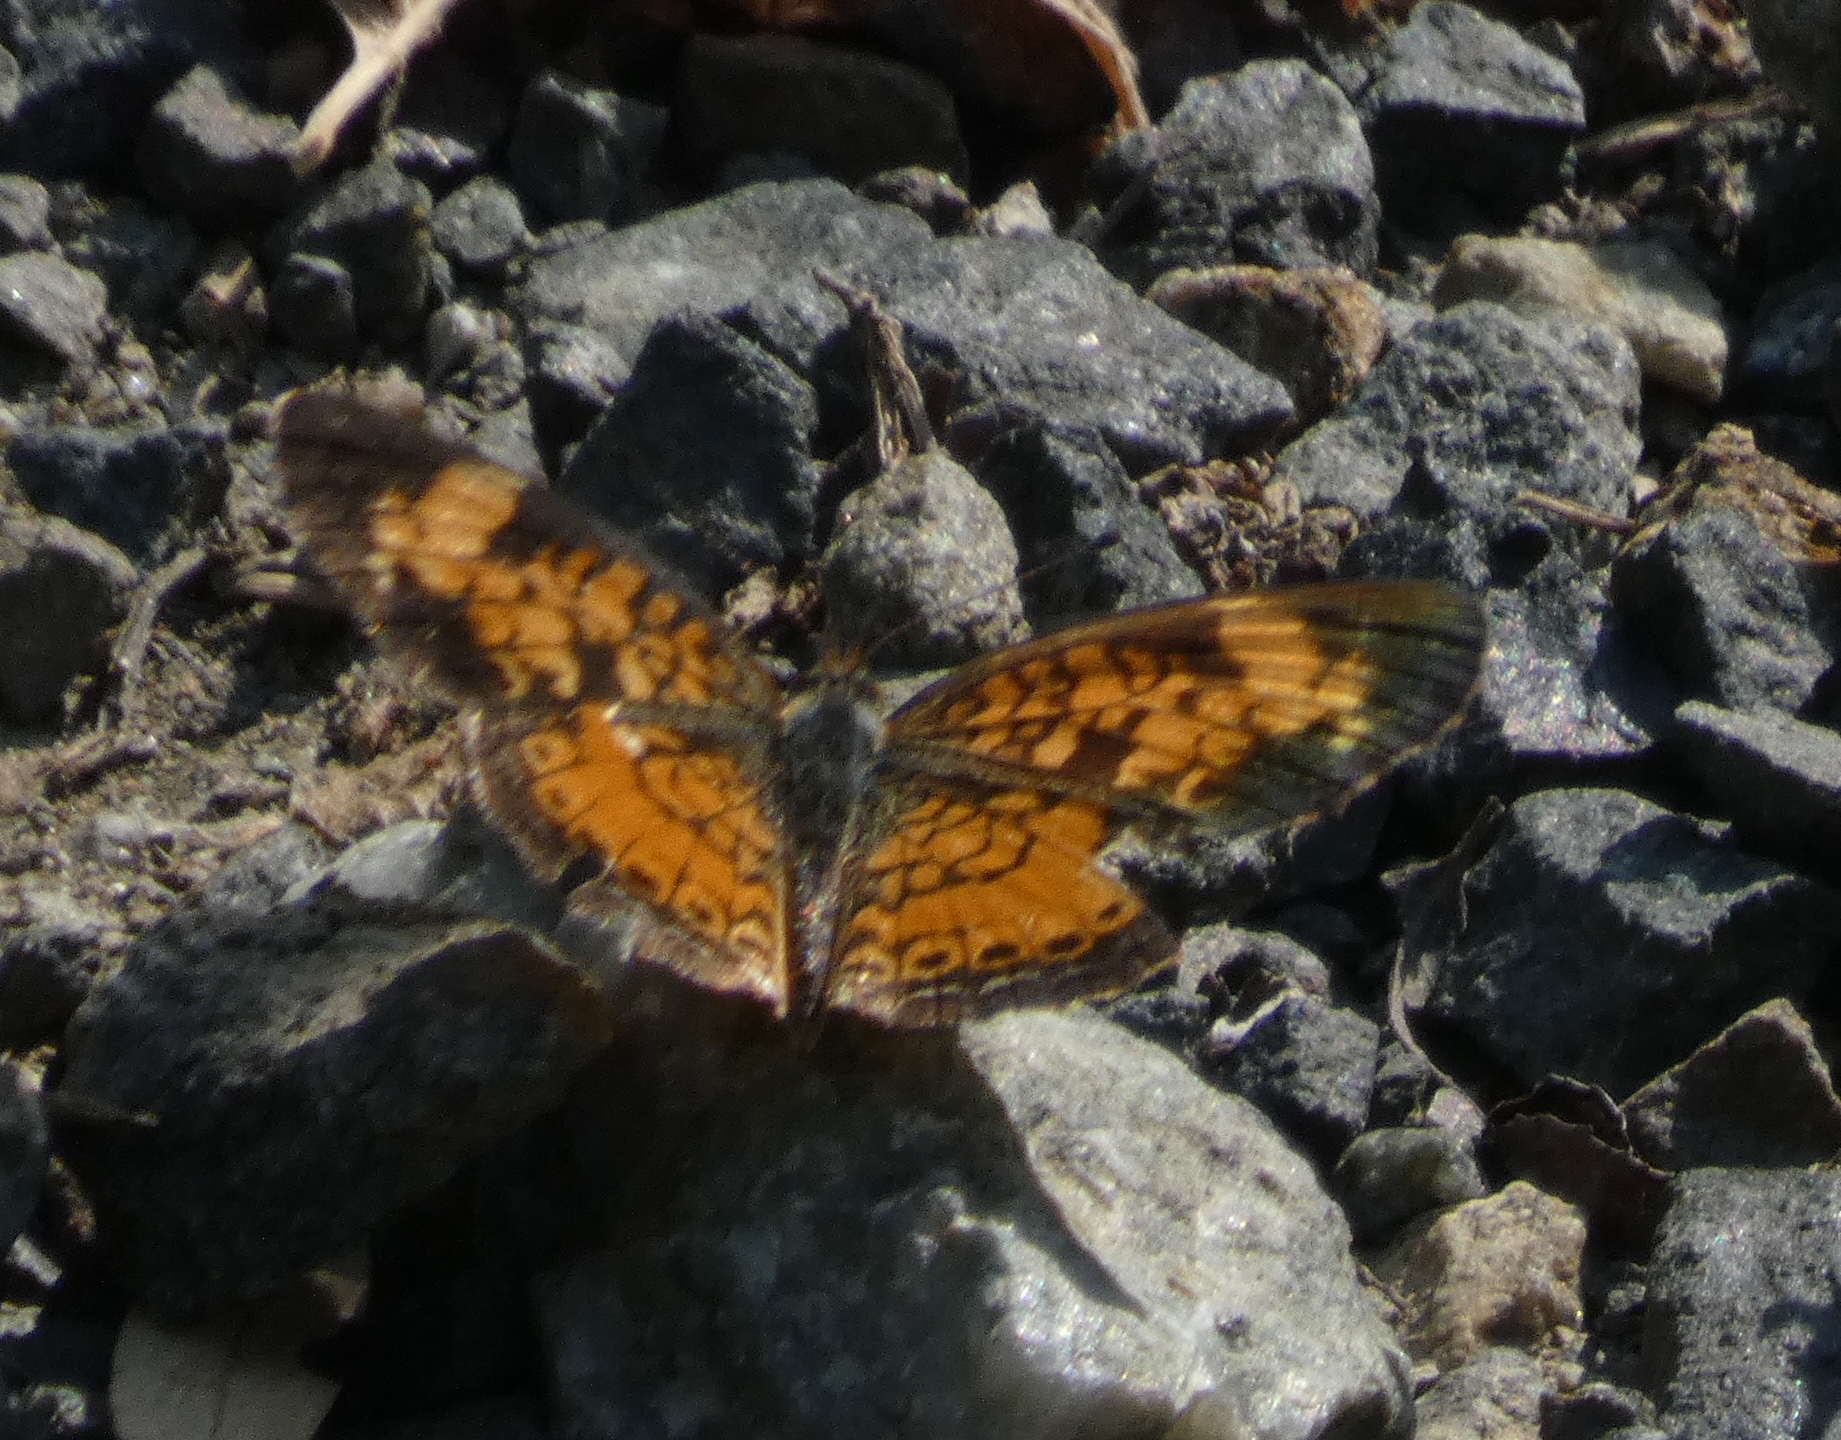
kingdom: Animalia
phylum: Arthropoda
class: Insecta
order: Lepidoptera
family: Nymphalidae
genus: Phyciodes
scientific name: Phyciodes tharos
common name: Pearl crescent
